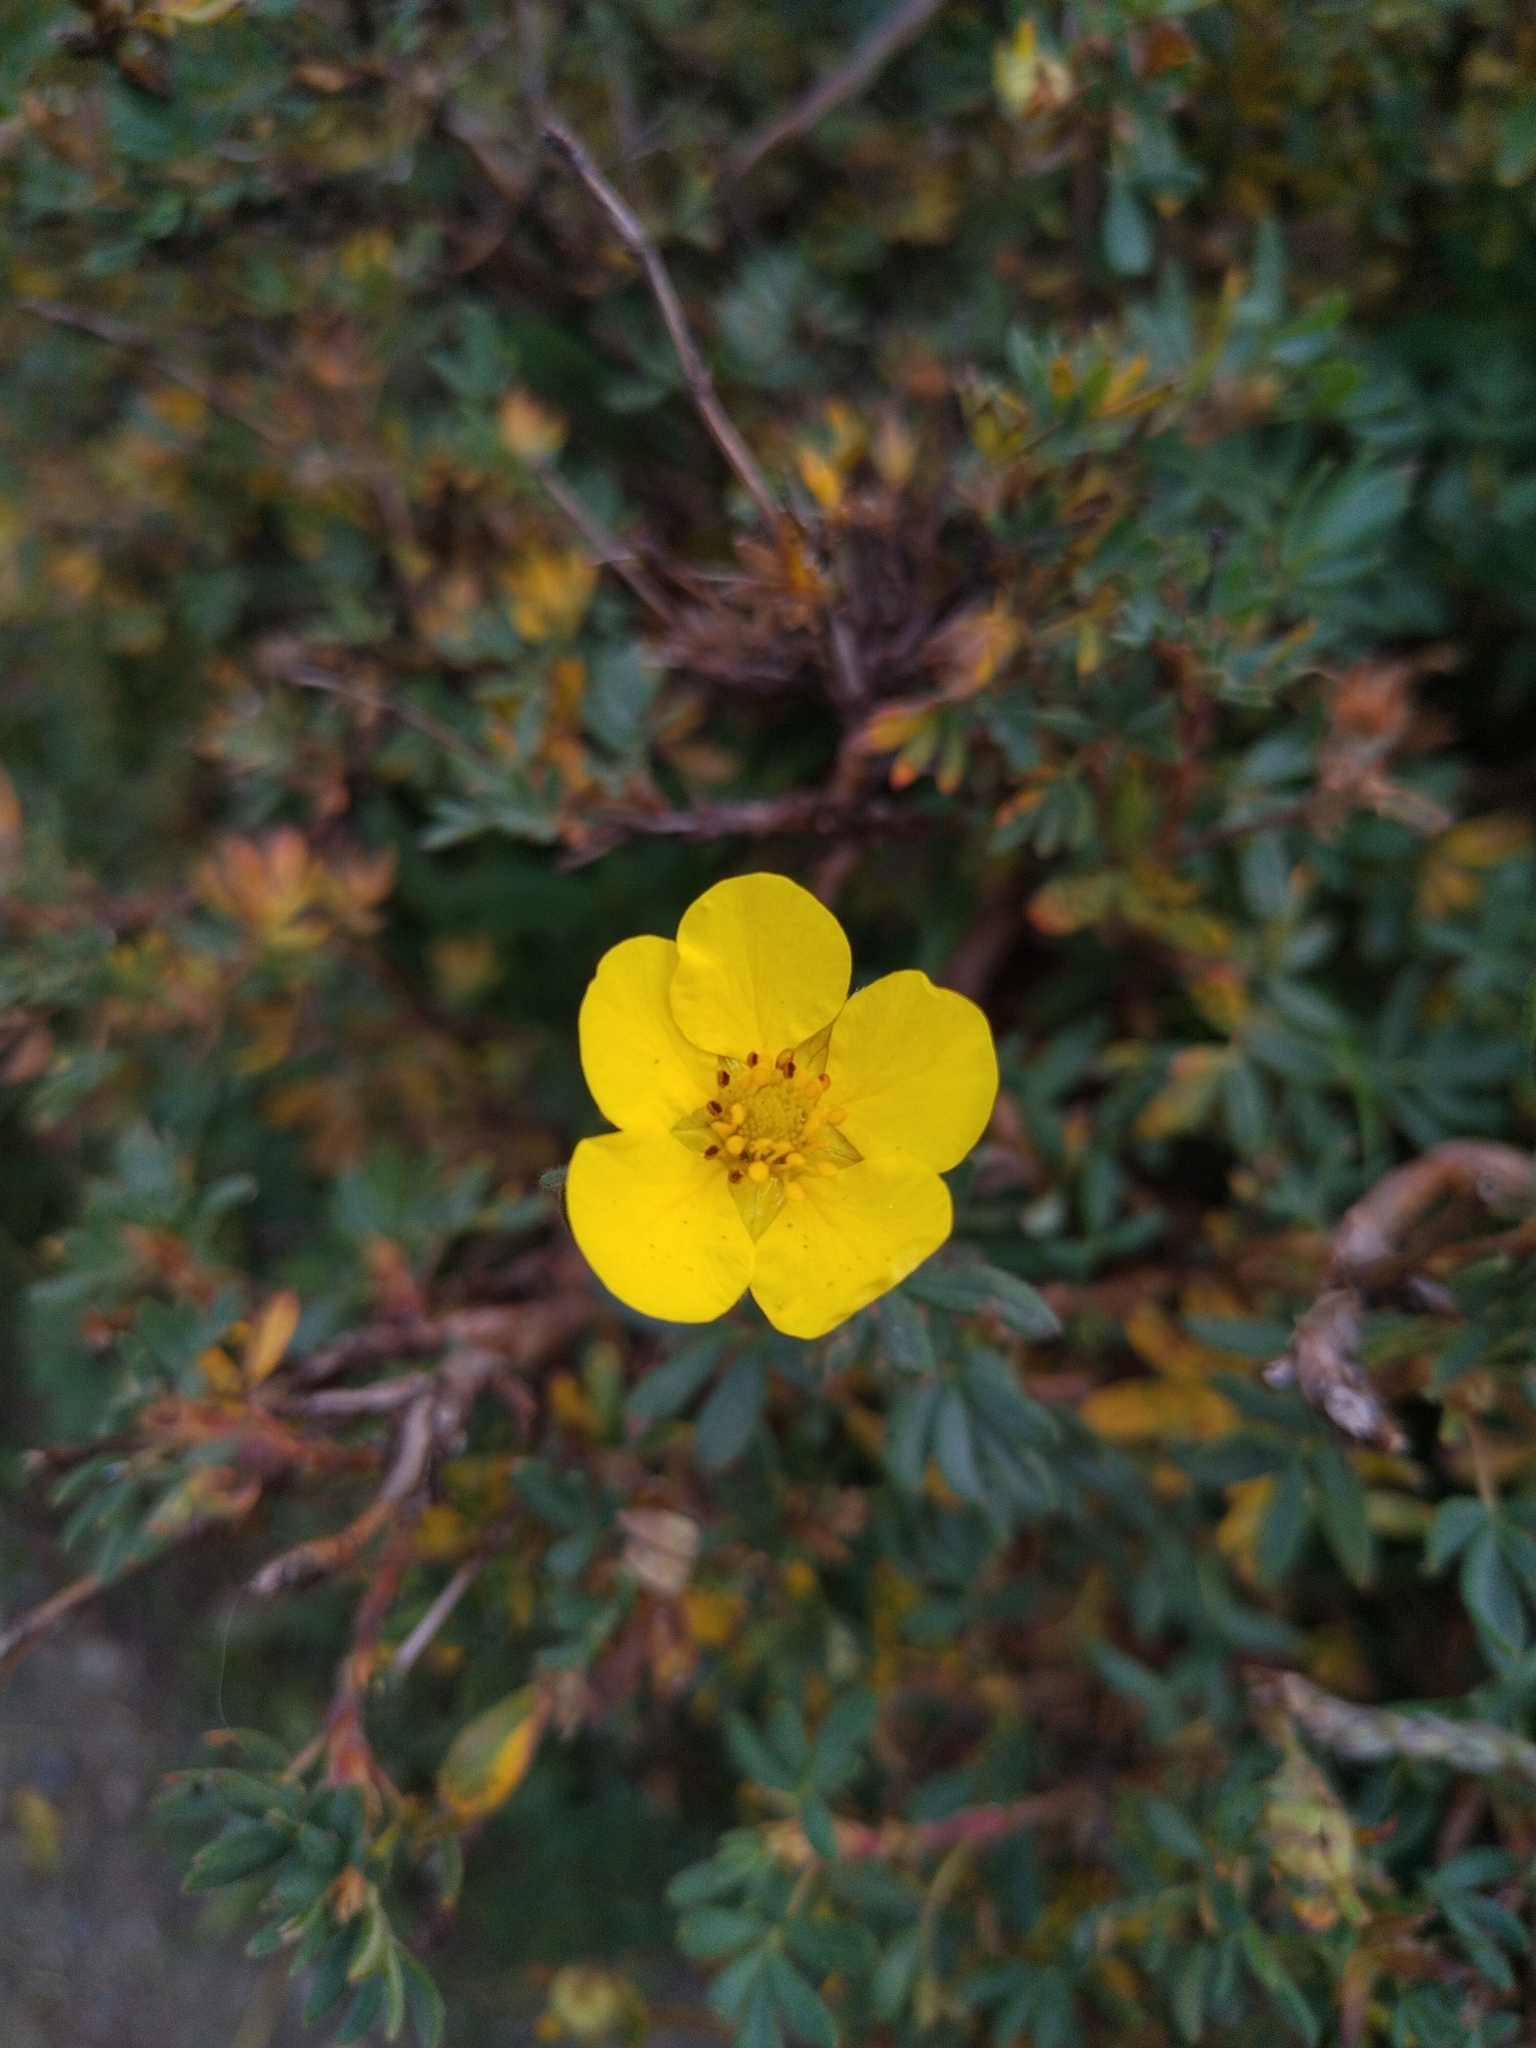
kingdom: Plantae
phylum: Tracheophyta
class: Magnoliopsida
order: Rosales
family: Rosaceae
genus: Dasiphora
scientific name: Dasiphora fruticosa
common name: Shrubby cinquefoil
